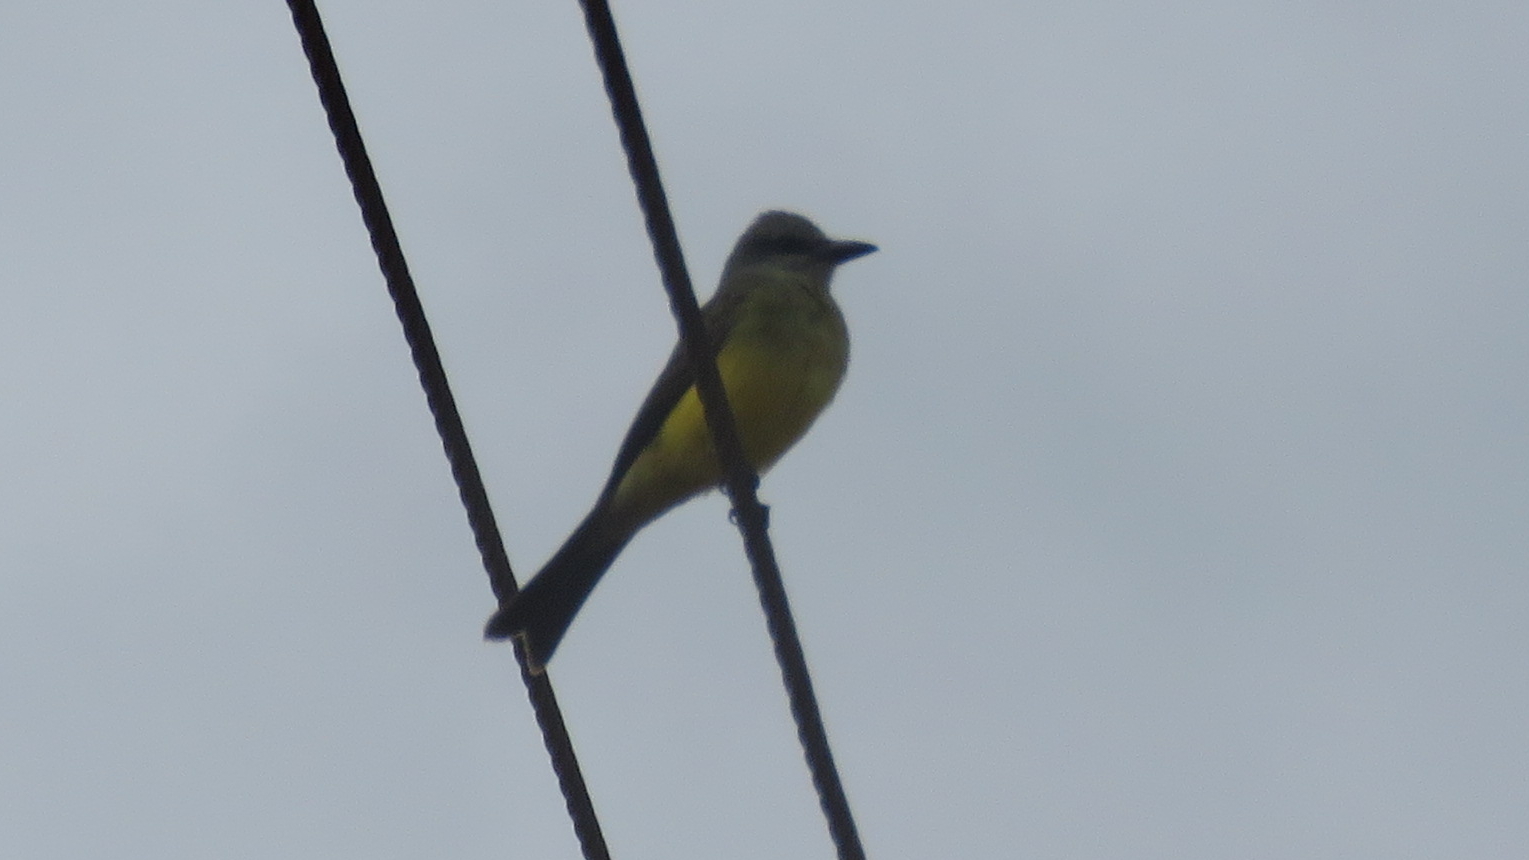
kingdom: Animalia
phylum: Chordata
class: Aves
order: Passeriformes
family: Tyrannidae
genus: Tyrannus
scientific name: Tyrannus melancholicus
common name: Tropical kingbird
